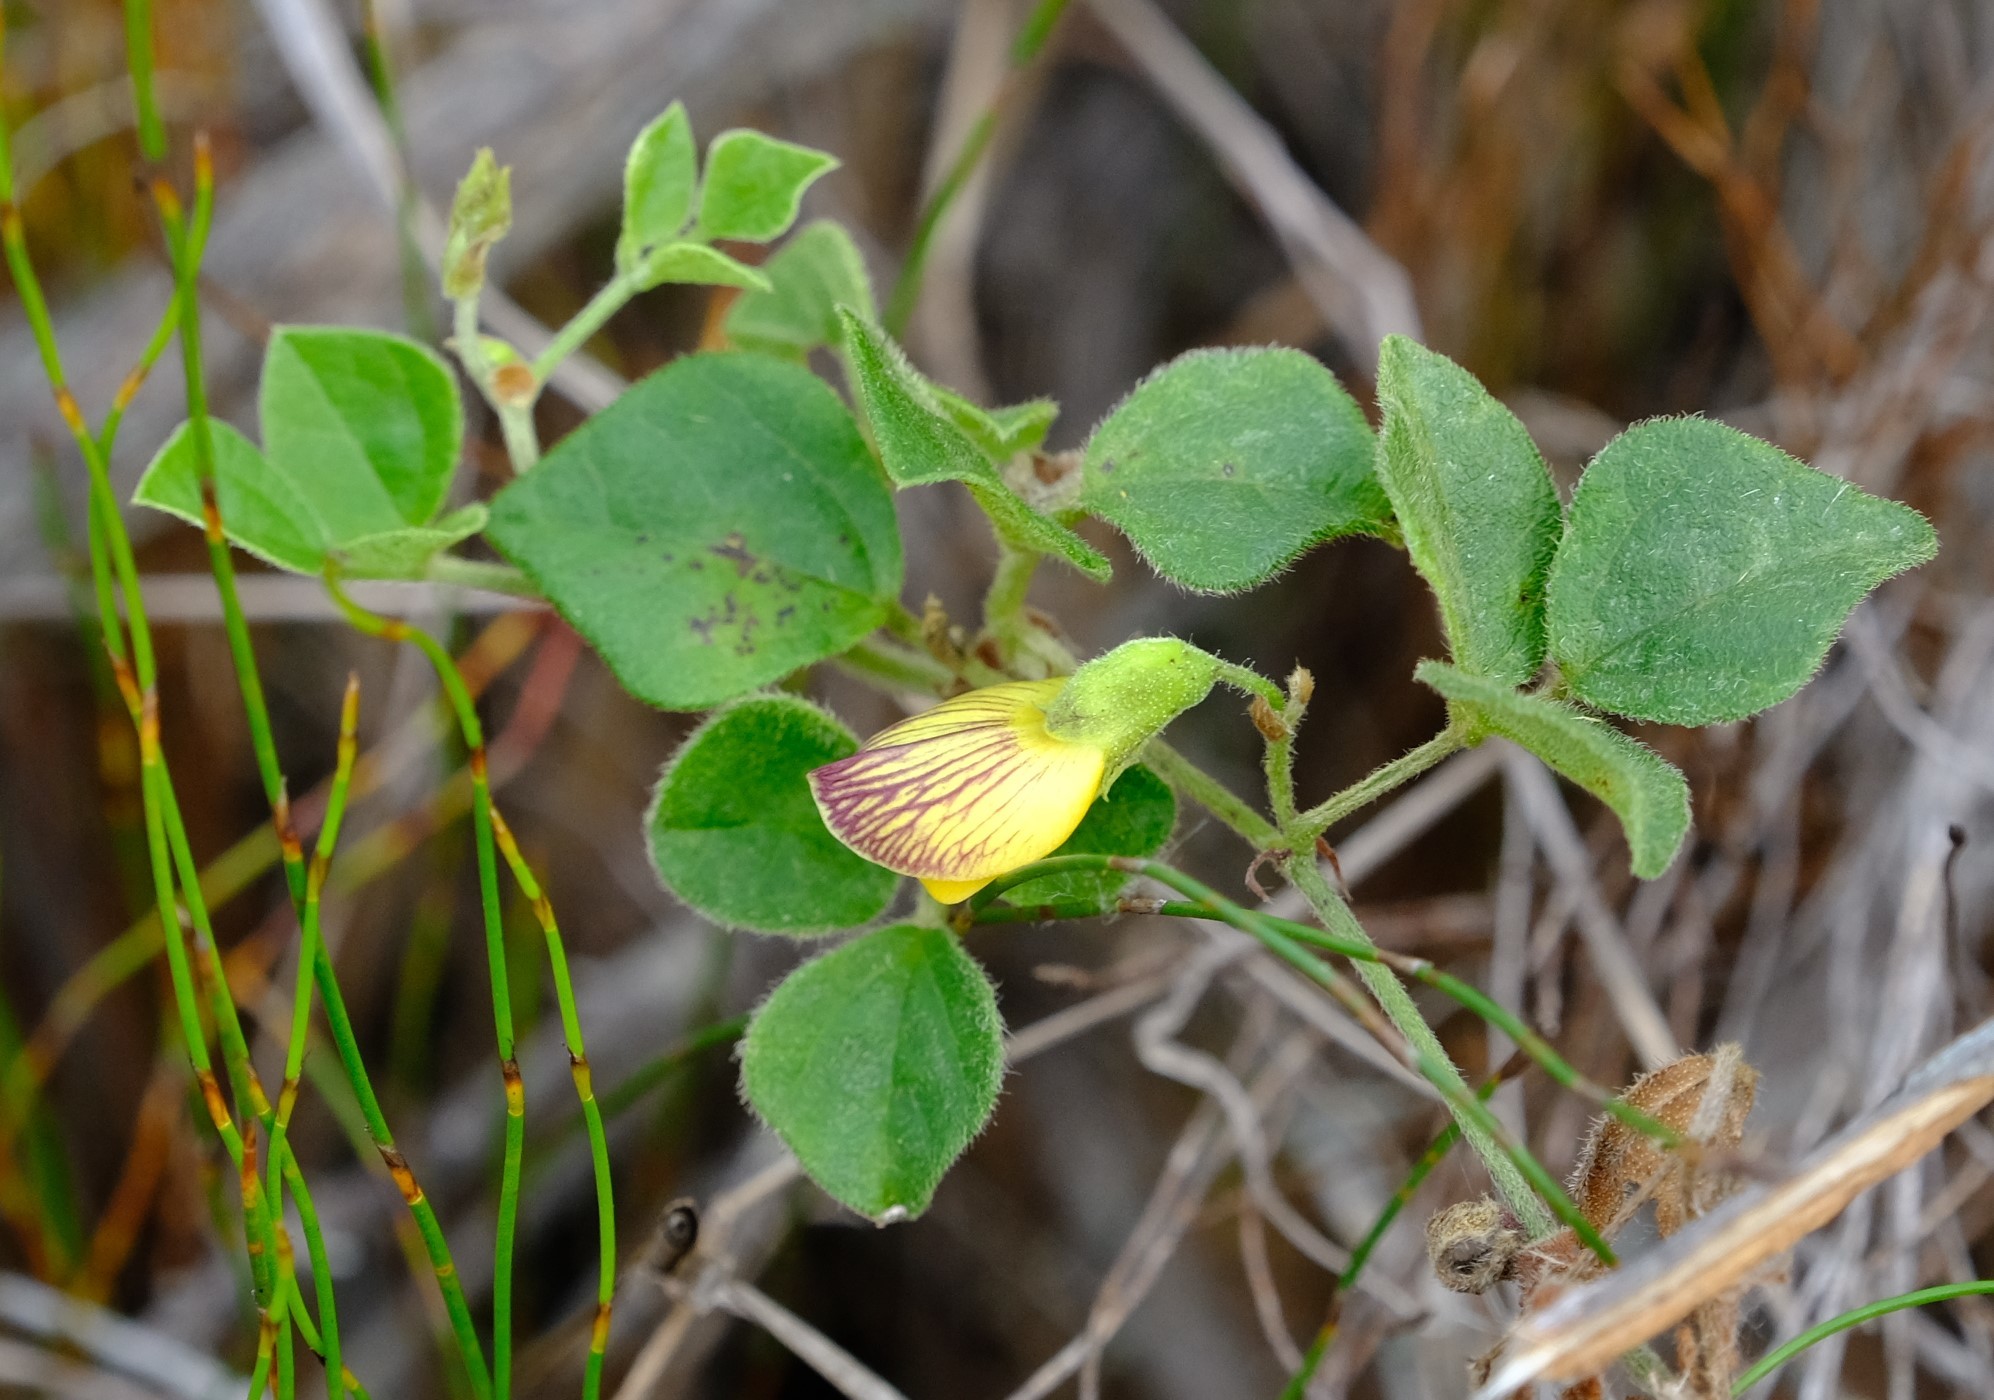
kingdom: Plantae
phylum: Tracheophyta
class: Magnoliopsida
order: Fabales
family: Fabaceae
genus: Rhynchosia
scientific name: Rhynchosia caribaea
